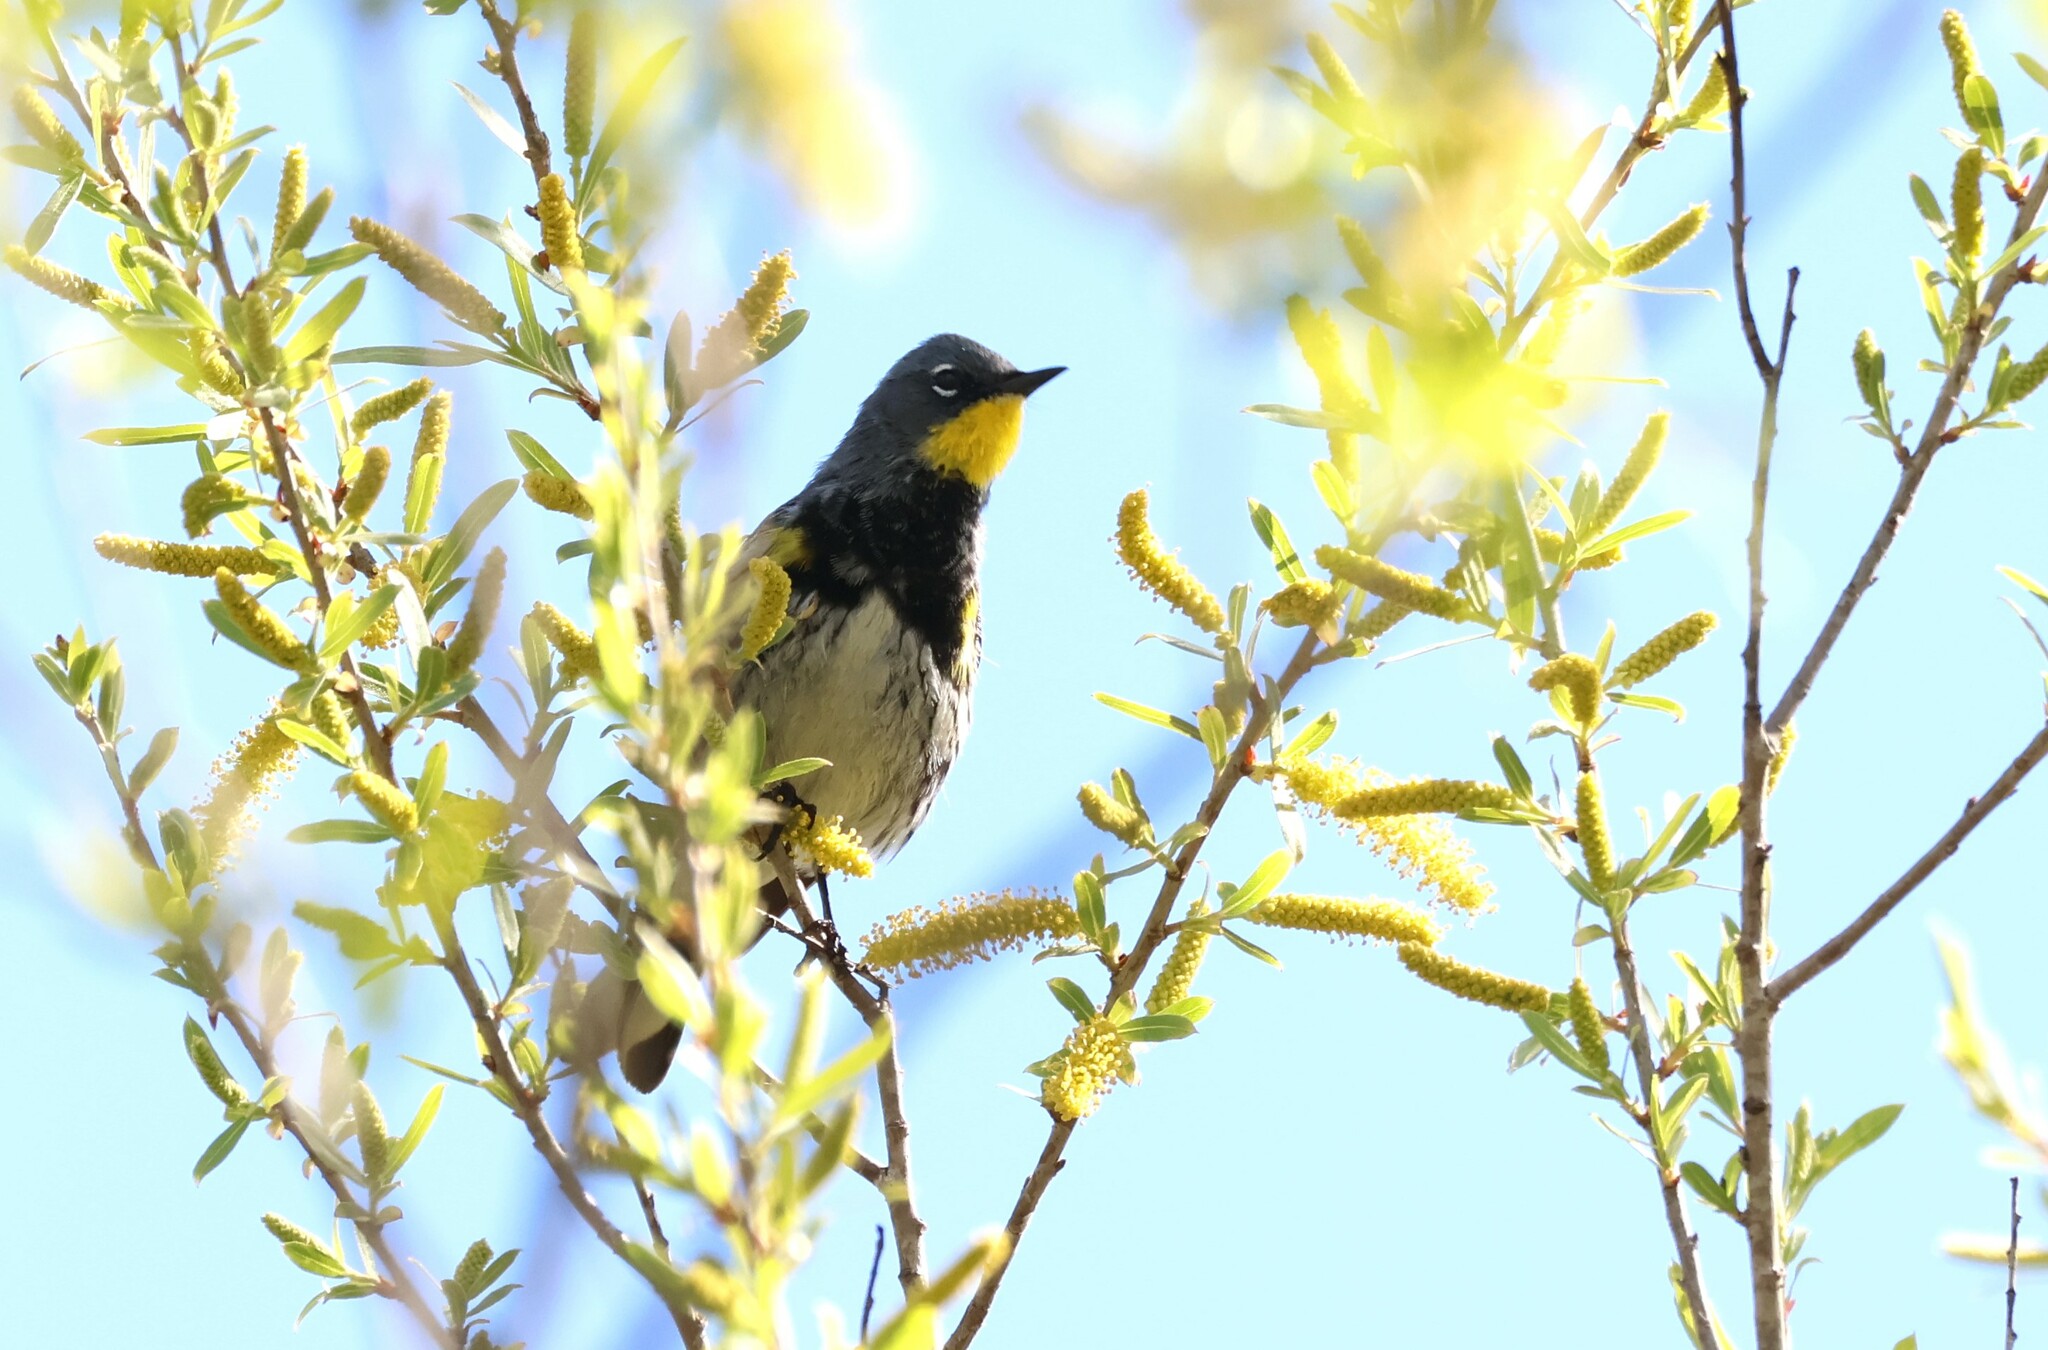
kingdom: Animalia
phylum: Chordata
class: Aves
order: Passeriformes
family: Parulidae
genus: Setophaga
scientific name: Setophaga auduboni
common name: Audubon's warbler
